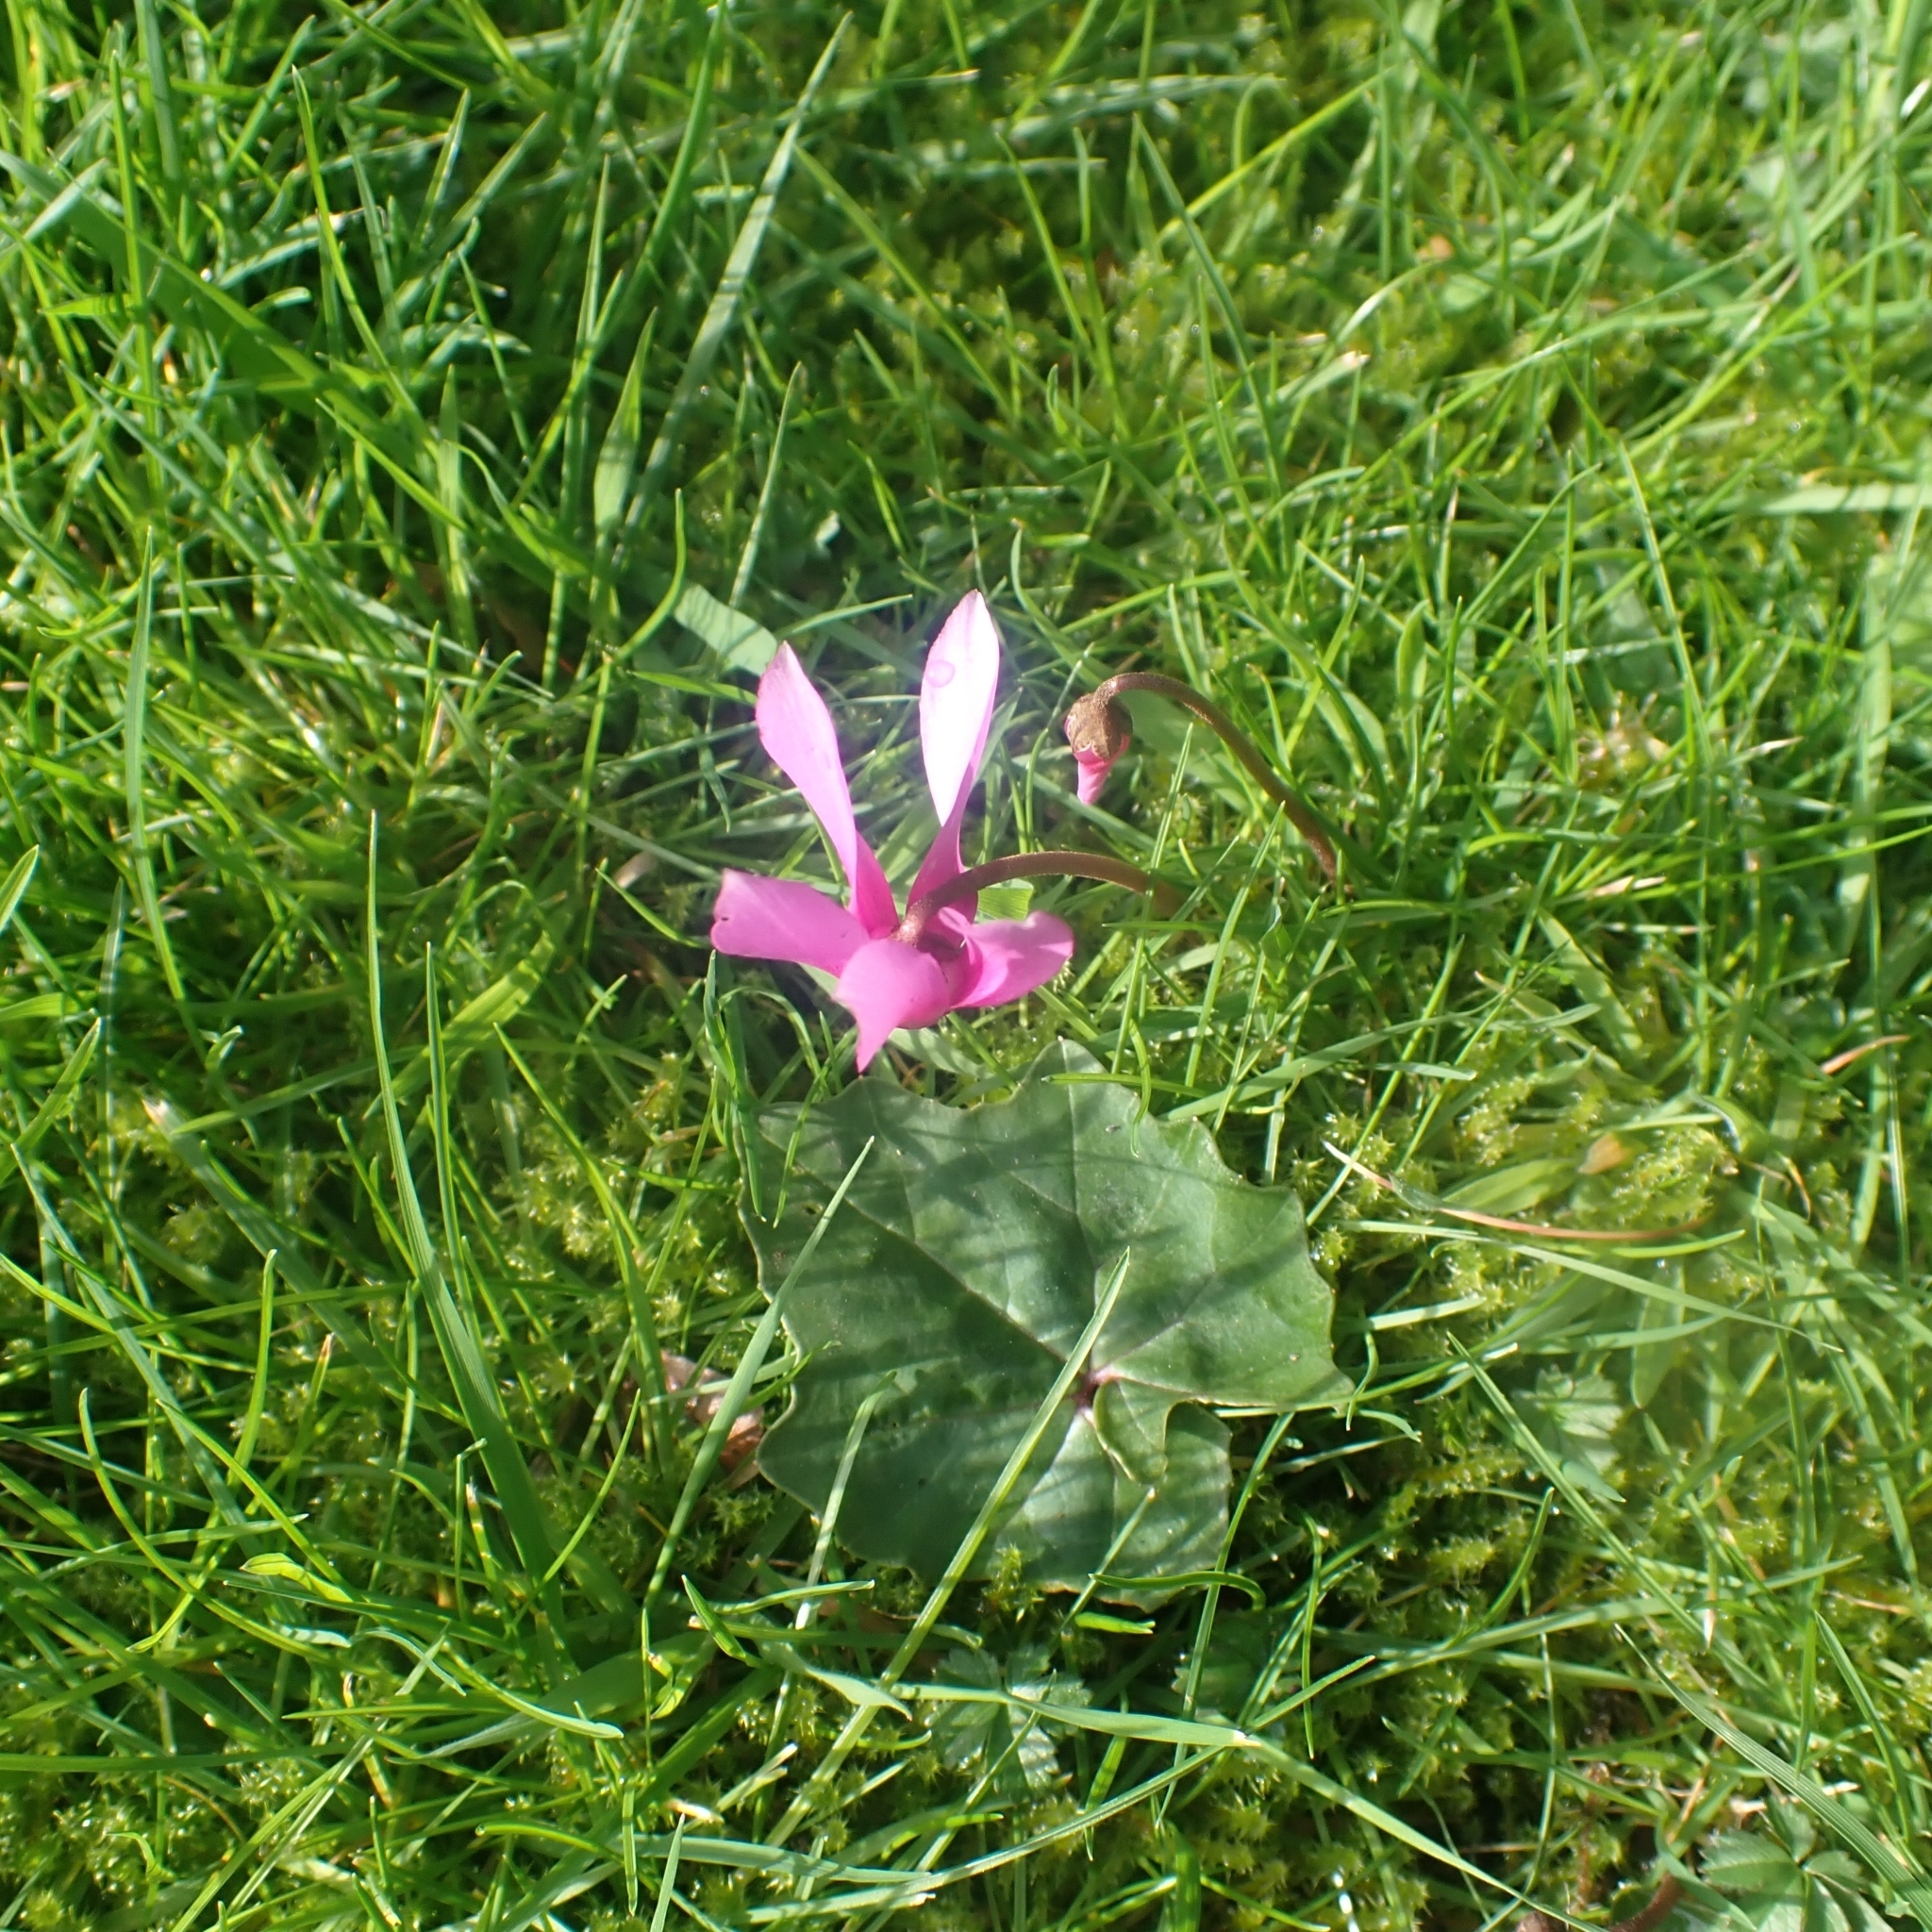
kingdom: Plantae
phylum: Tracheophyta
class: Magnoliopsida
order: Ericales
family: Primulaceae
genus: Cyclamen
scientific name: Cyclamen repandum
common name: Spring sowbread
